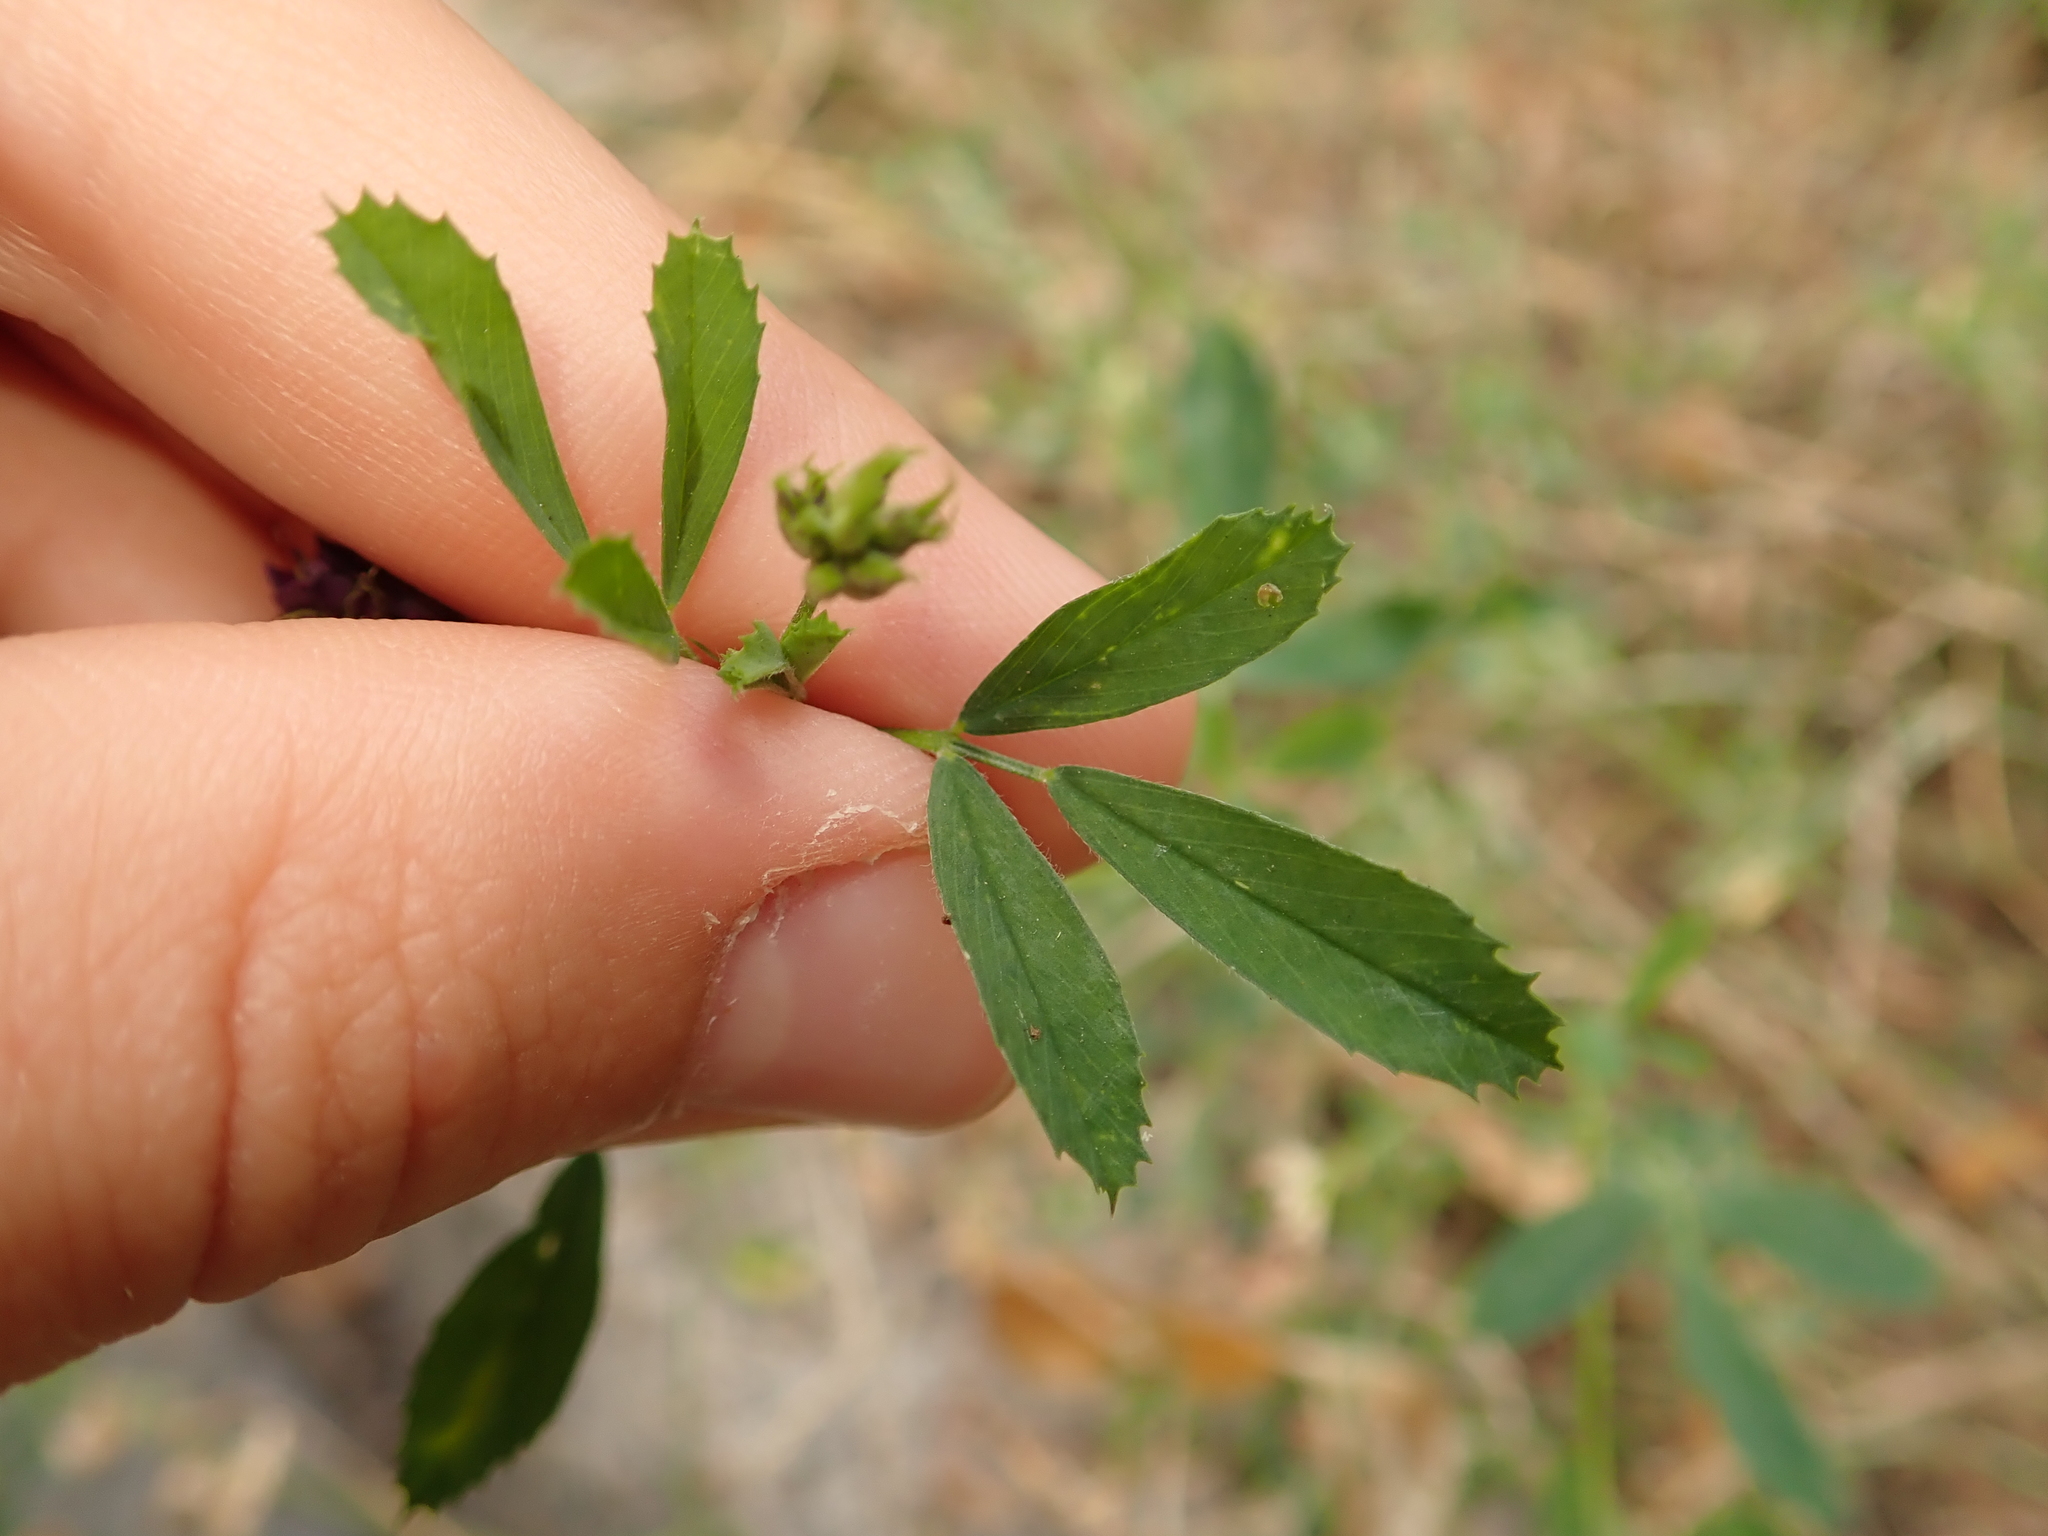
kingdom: Plantae
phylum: Tracheophyta
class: Magnoliopsida
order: Fabales
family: Fabaceae
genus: Medicago
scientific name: Medicago varia
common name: Sand lucerne
